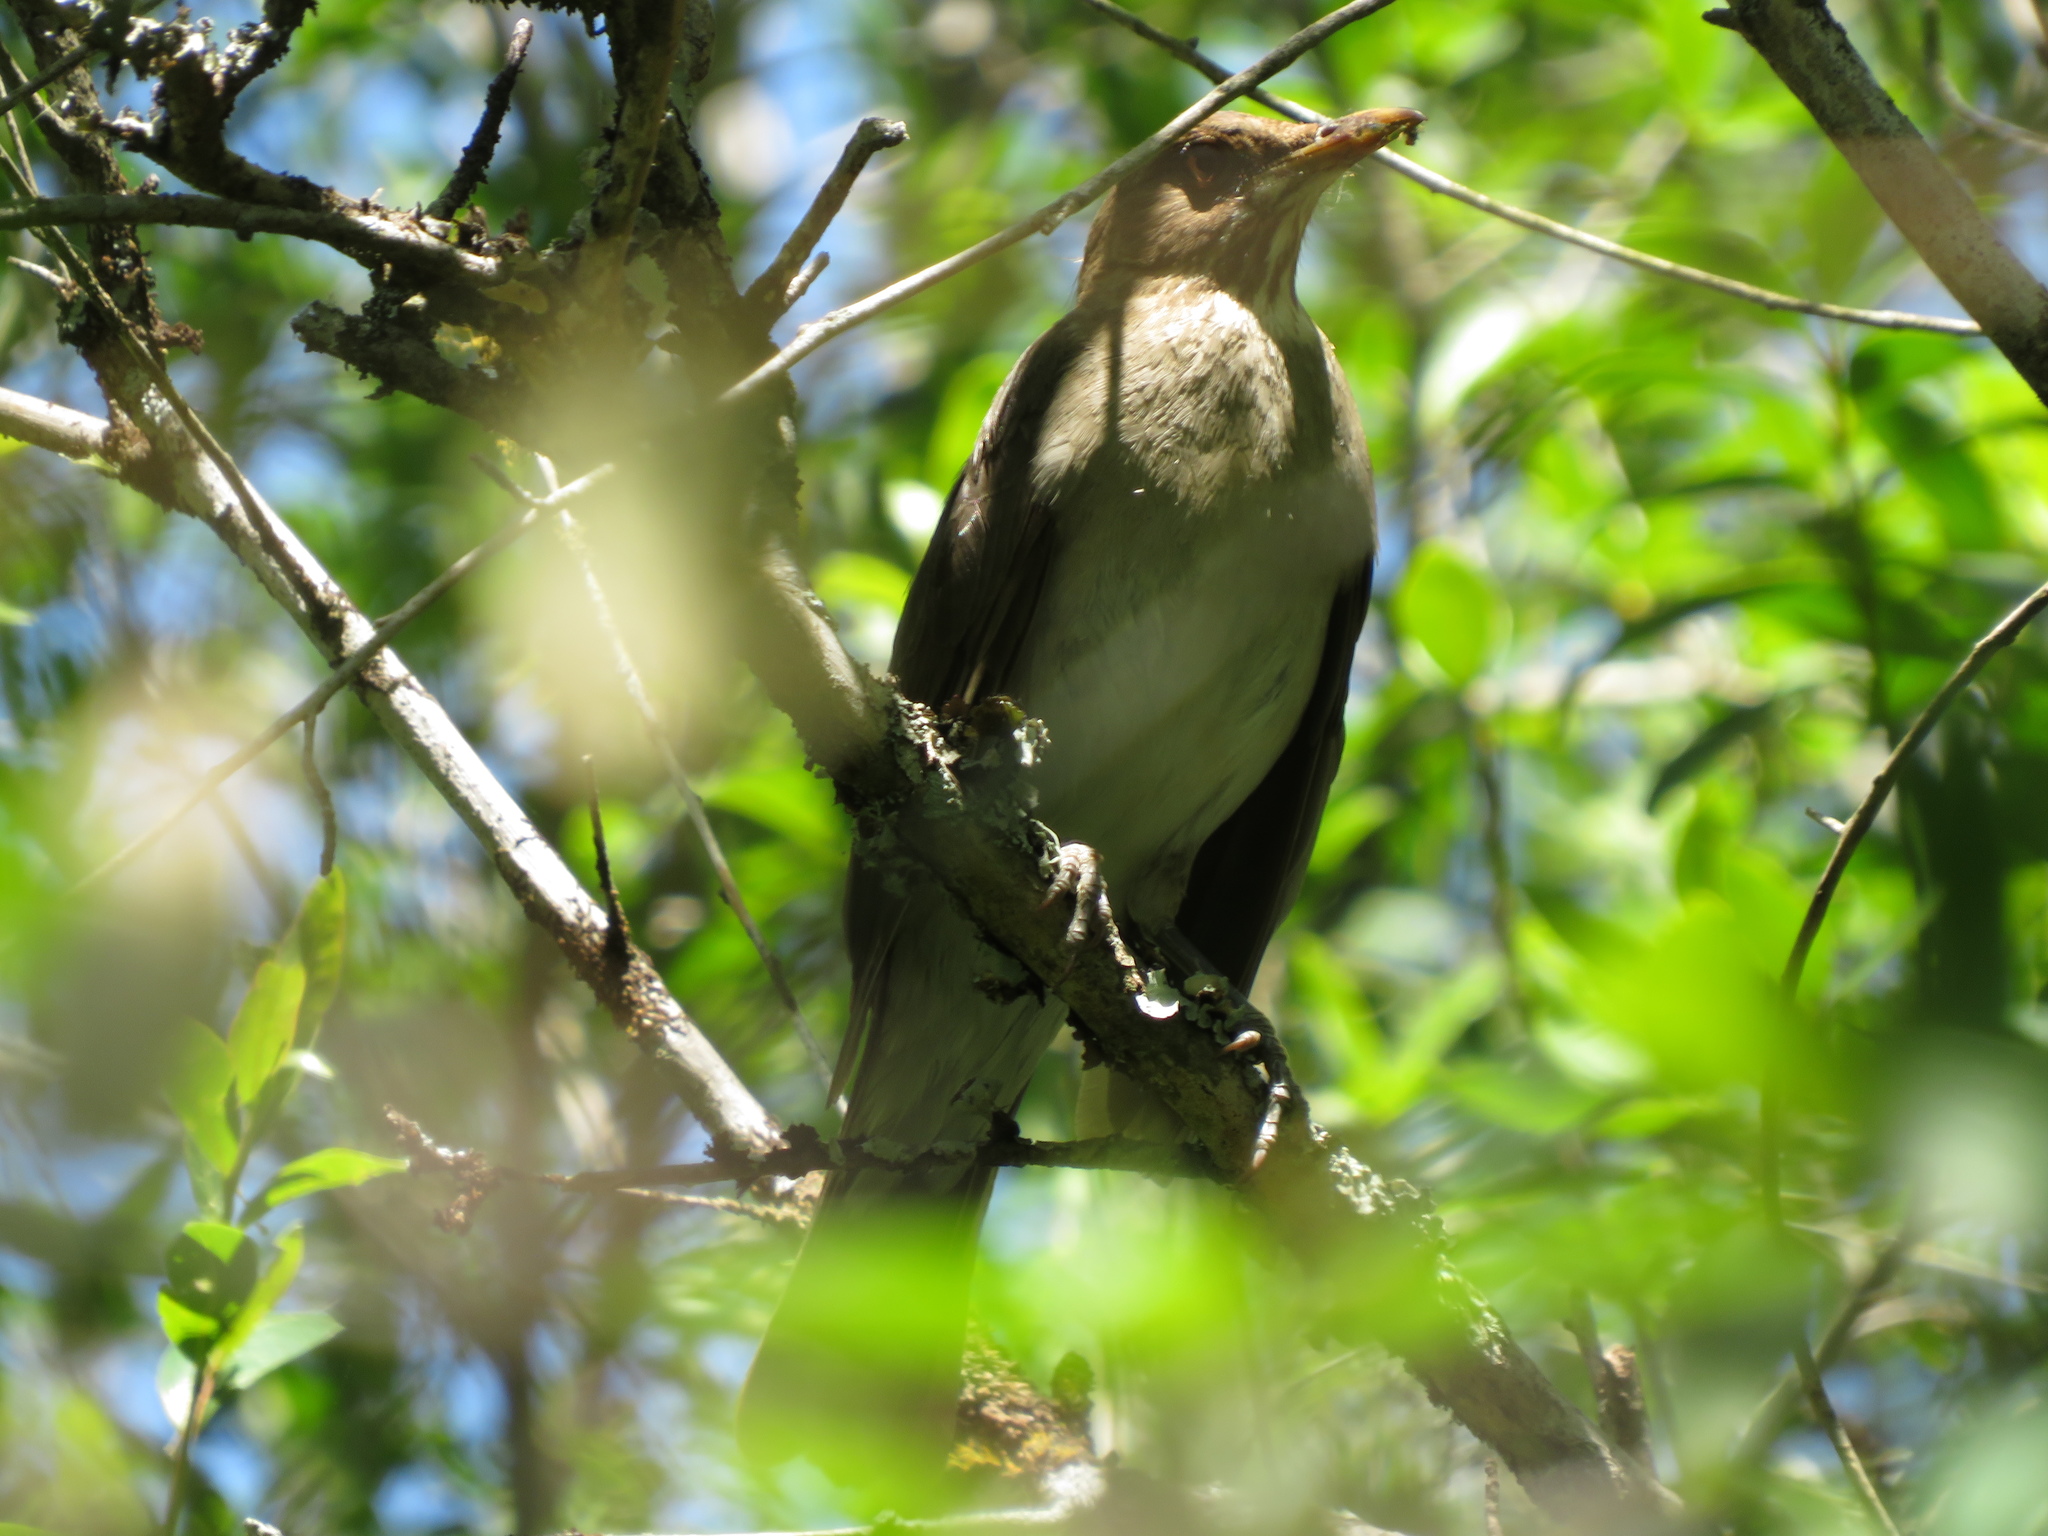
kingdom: Animalia
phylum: Chordata
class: Aves
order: Passeriformes
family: Turdidae
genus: Turdus
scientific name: Turdus amaurochalinus
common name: Creamy-bellied thrush
